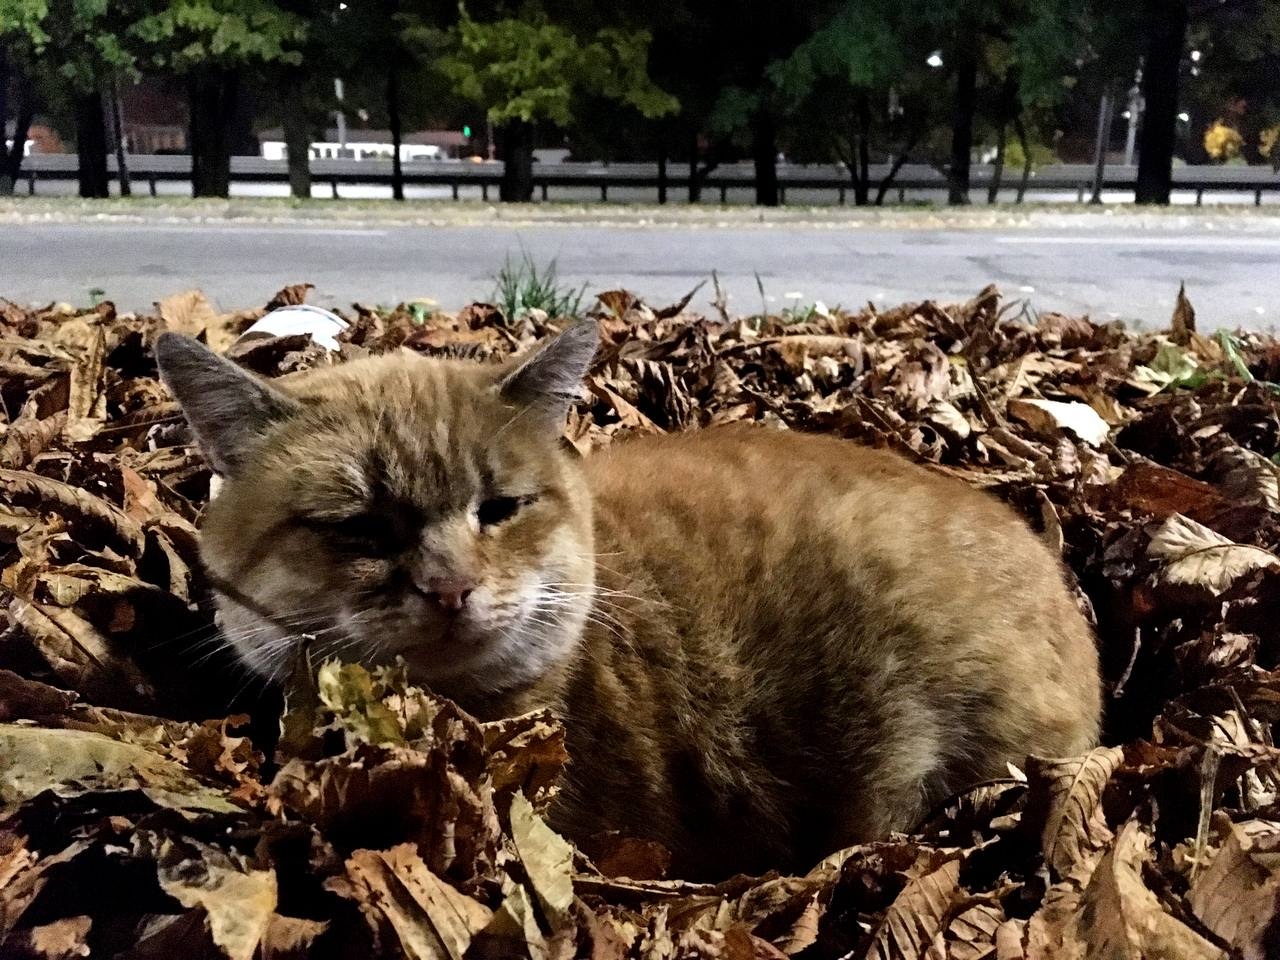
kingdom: Animalia
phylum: Chordata
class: Mammalia
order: Carnivora
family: Felidae
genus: Felis
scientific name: Felis catus
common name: Domestic cat
